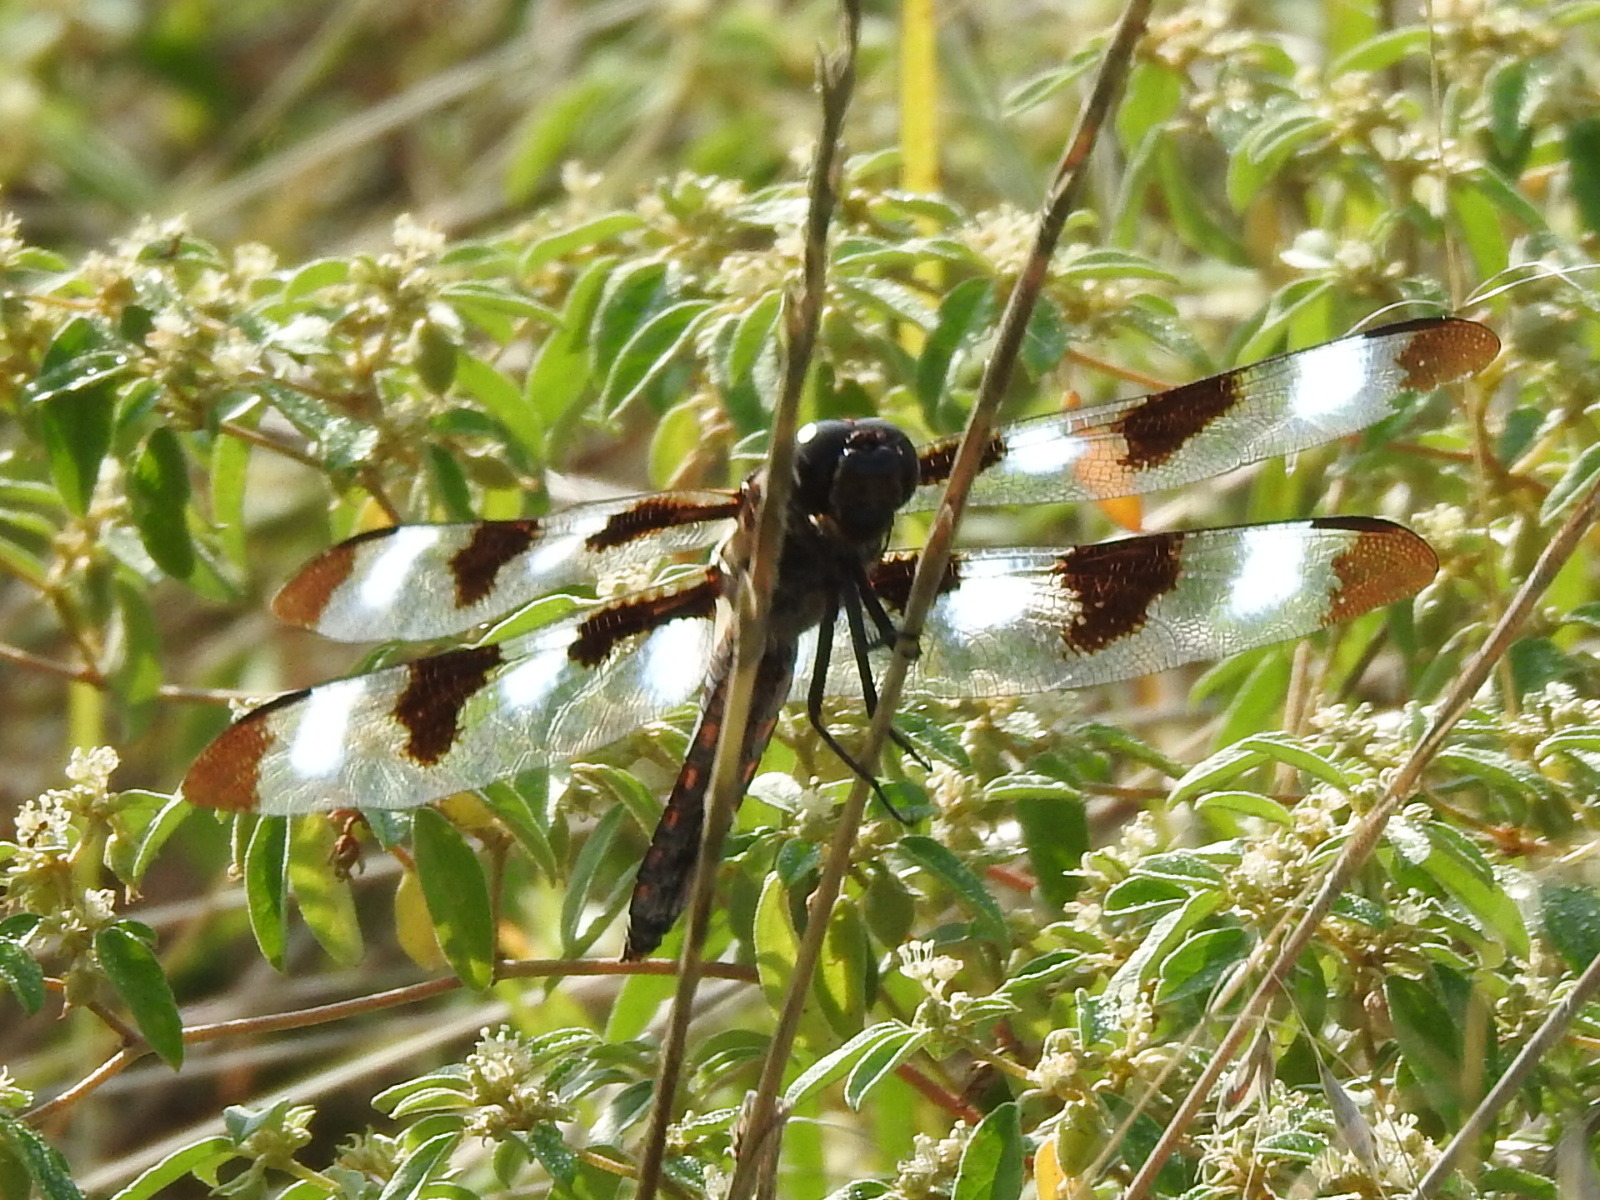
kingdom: Animalia
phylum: Arthropoda
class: Insecta
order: Odonata
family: Libellulidae
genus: Libellula
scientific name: Libellula pulchella
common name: Twelve-spotted skimmer
